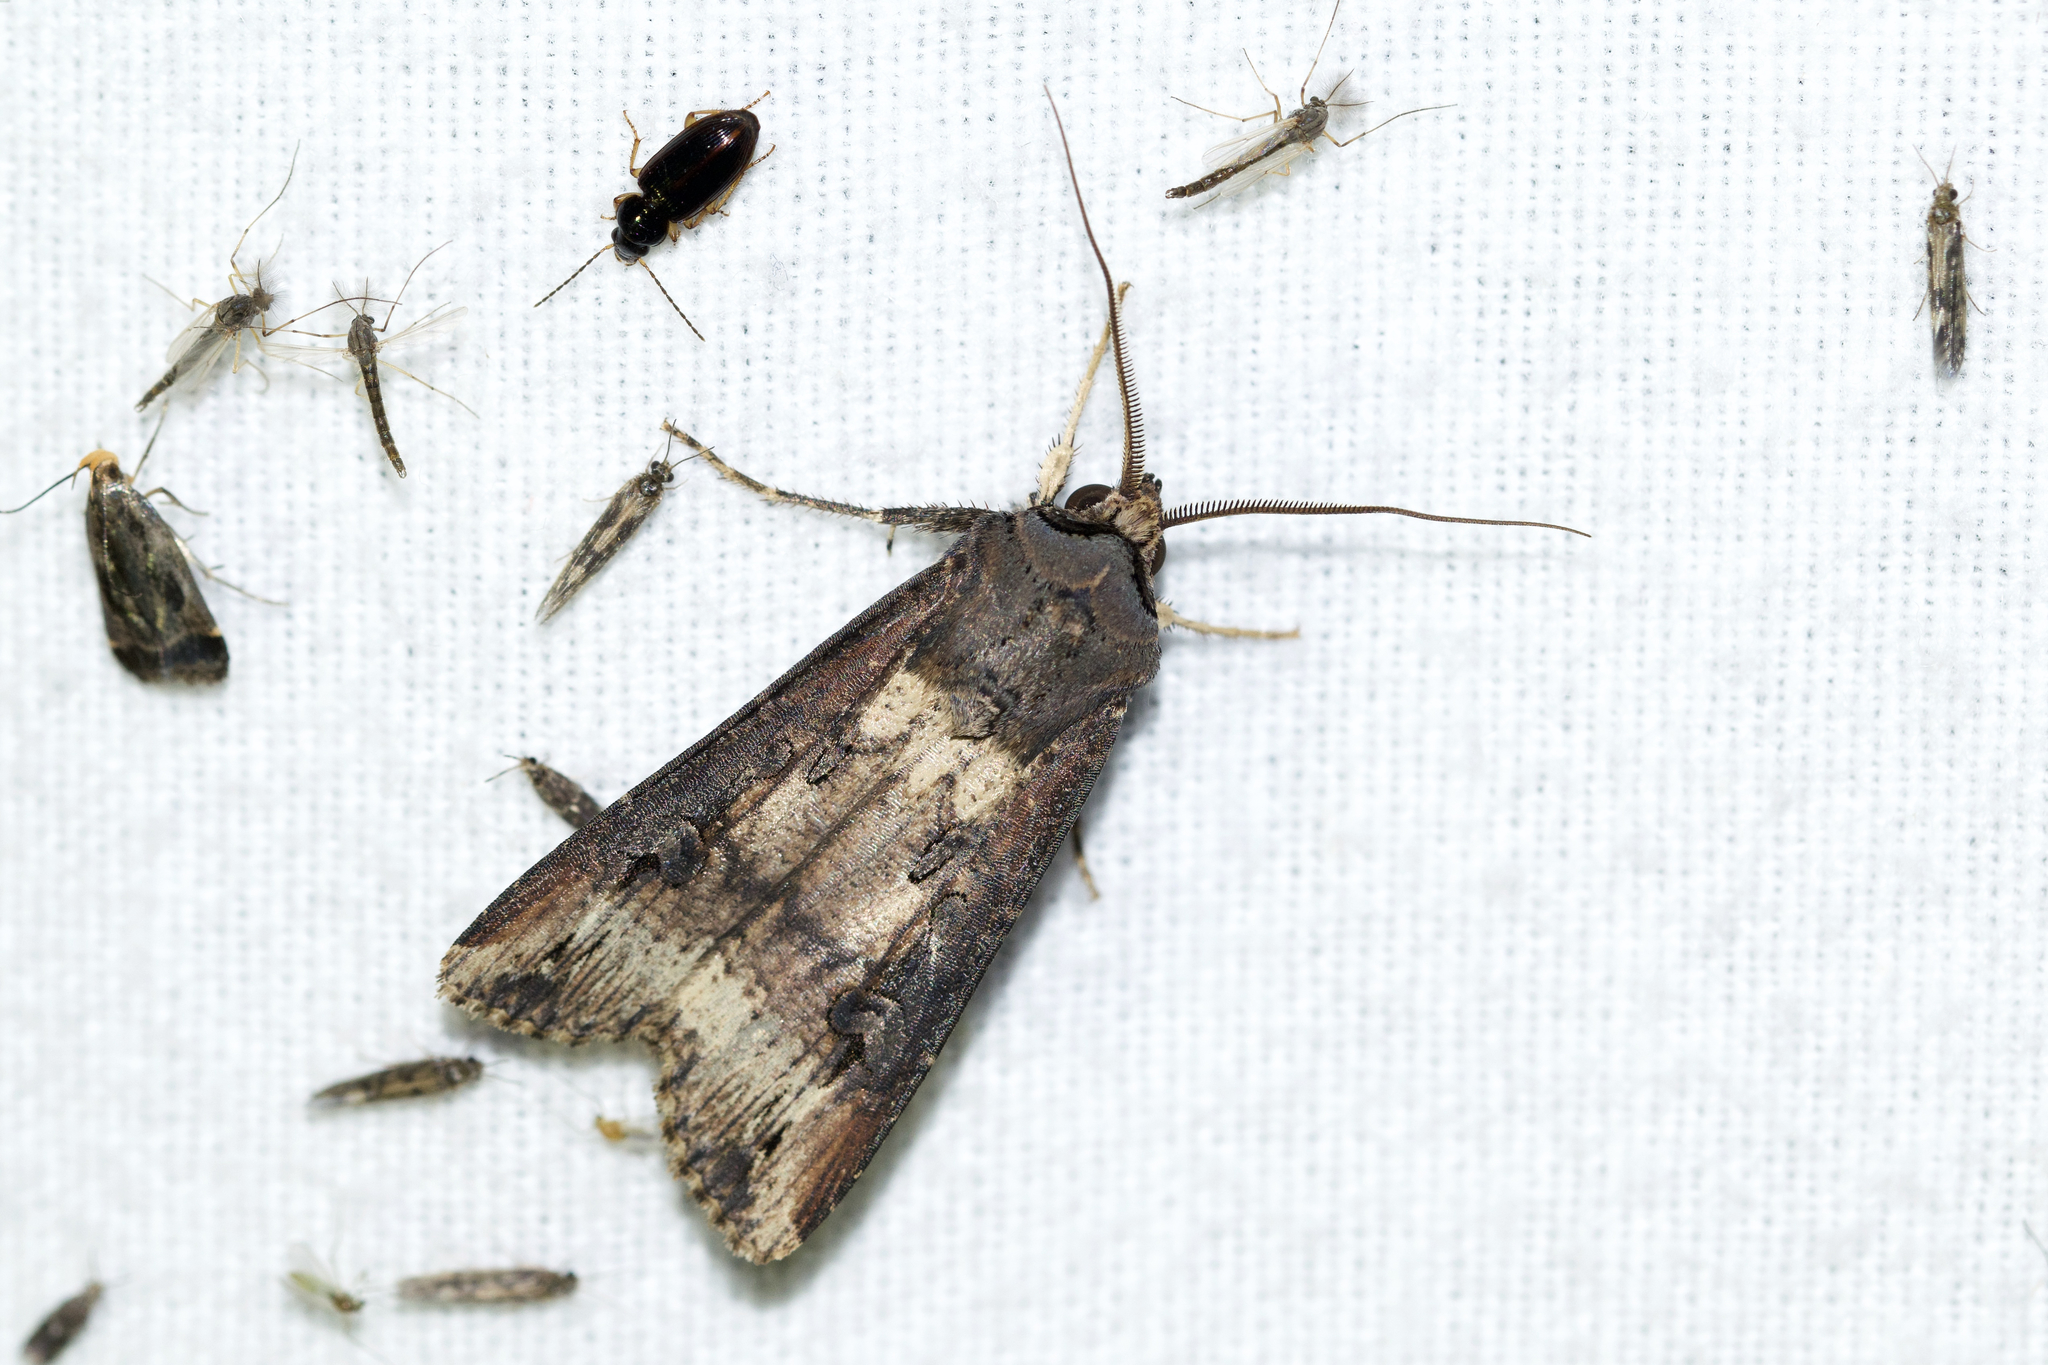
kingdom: Animalia
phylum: Arthropoda
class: Insecta
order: Lepidoptera
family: Noctuidae
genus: Agrotis
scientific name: Agrotis ipsilon
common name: Dark sword-grass
